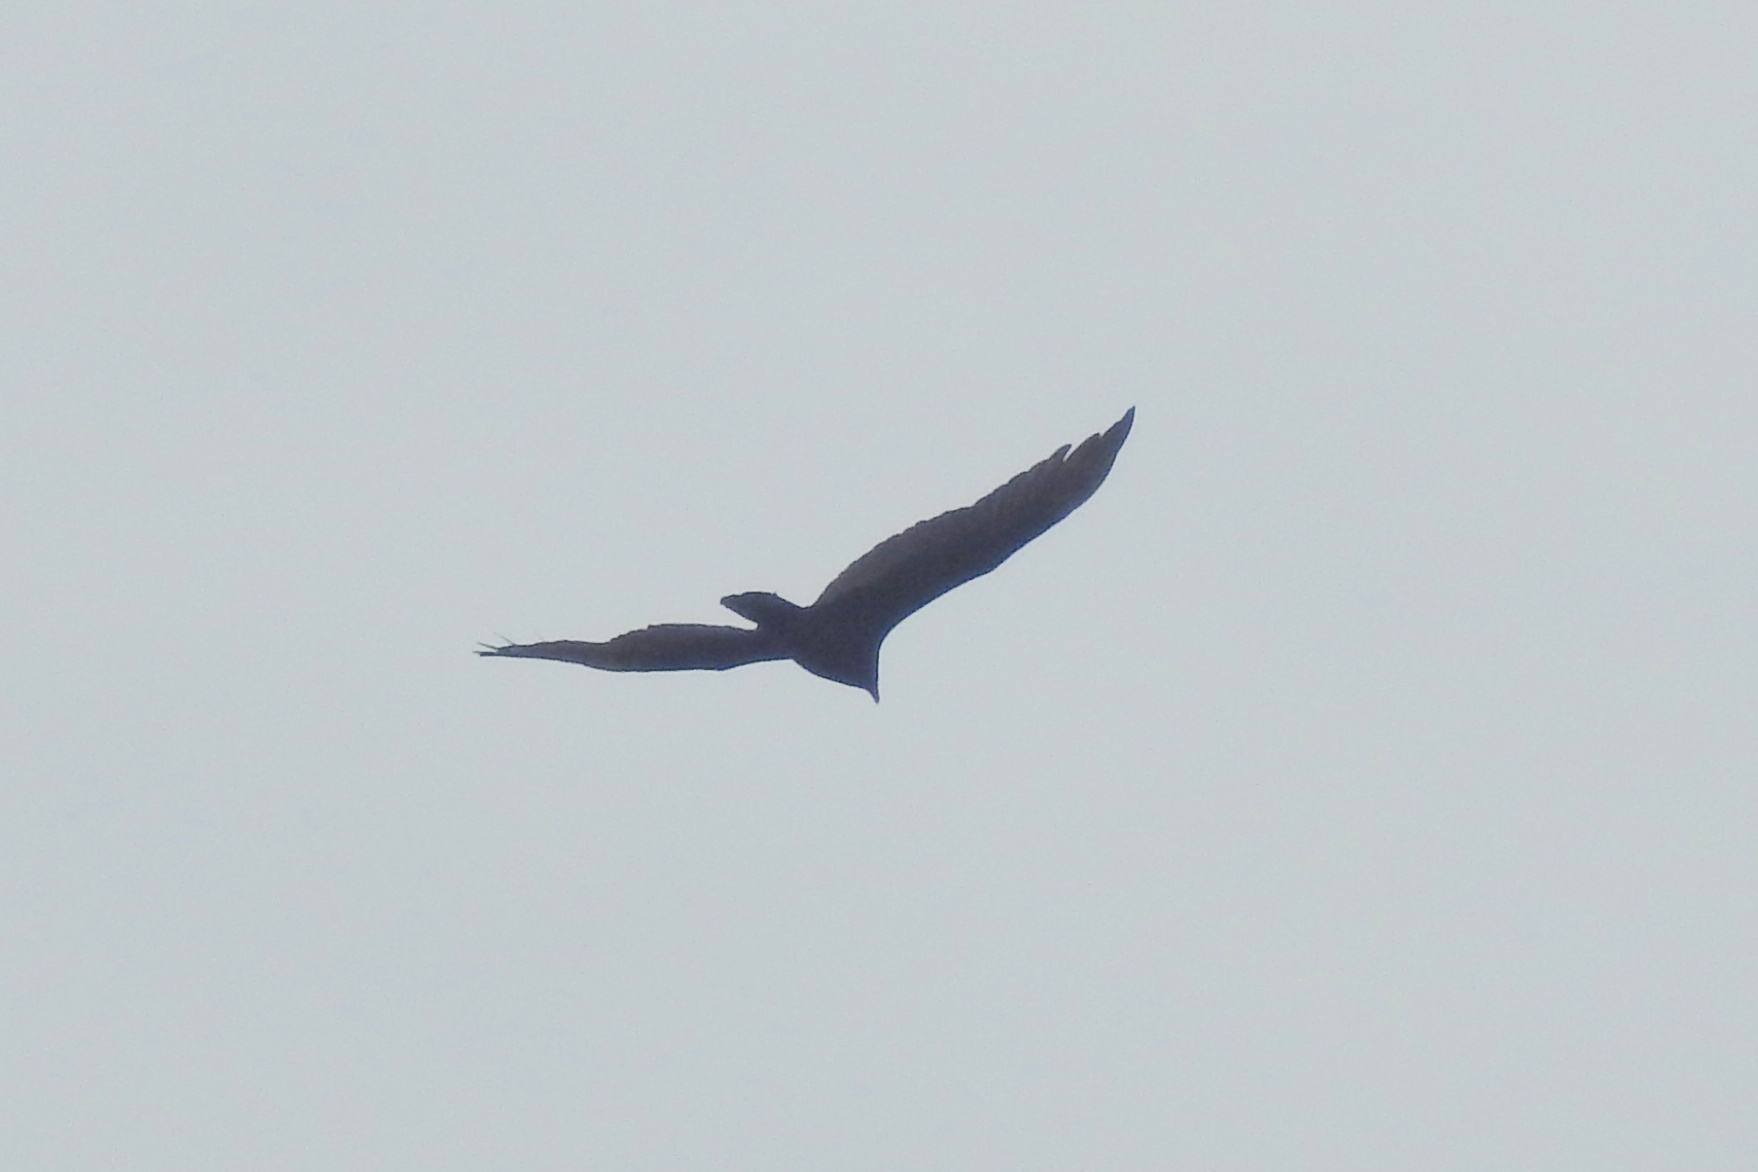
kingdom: Animalia
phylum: Chordata
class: Aves
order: Accipitriformes
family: Cathartidae
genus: Cathartes
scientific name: Cathartes aura
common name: Turkey vulture
